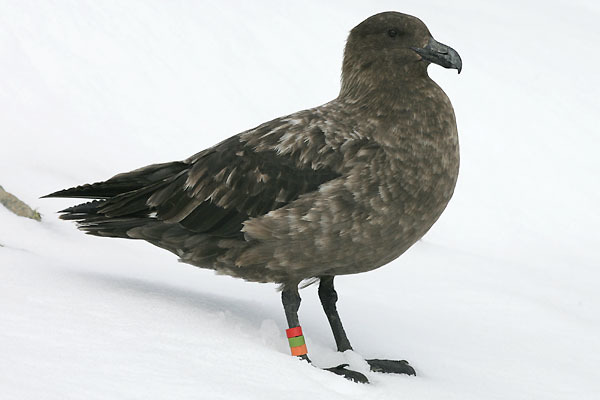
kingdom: Animalia
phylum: Chordata
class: Aves
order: Charadriiformes
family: Stercorariidae
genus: Stercorarius
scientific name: Stercorarius antarcticus
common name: Brown skua
